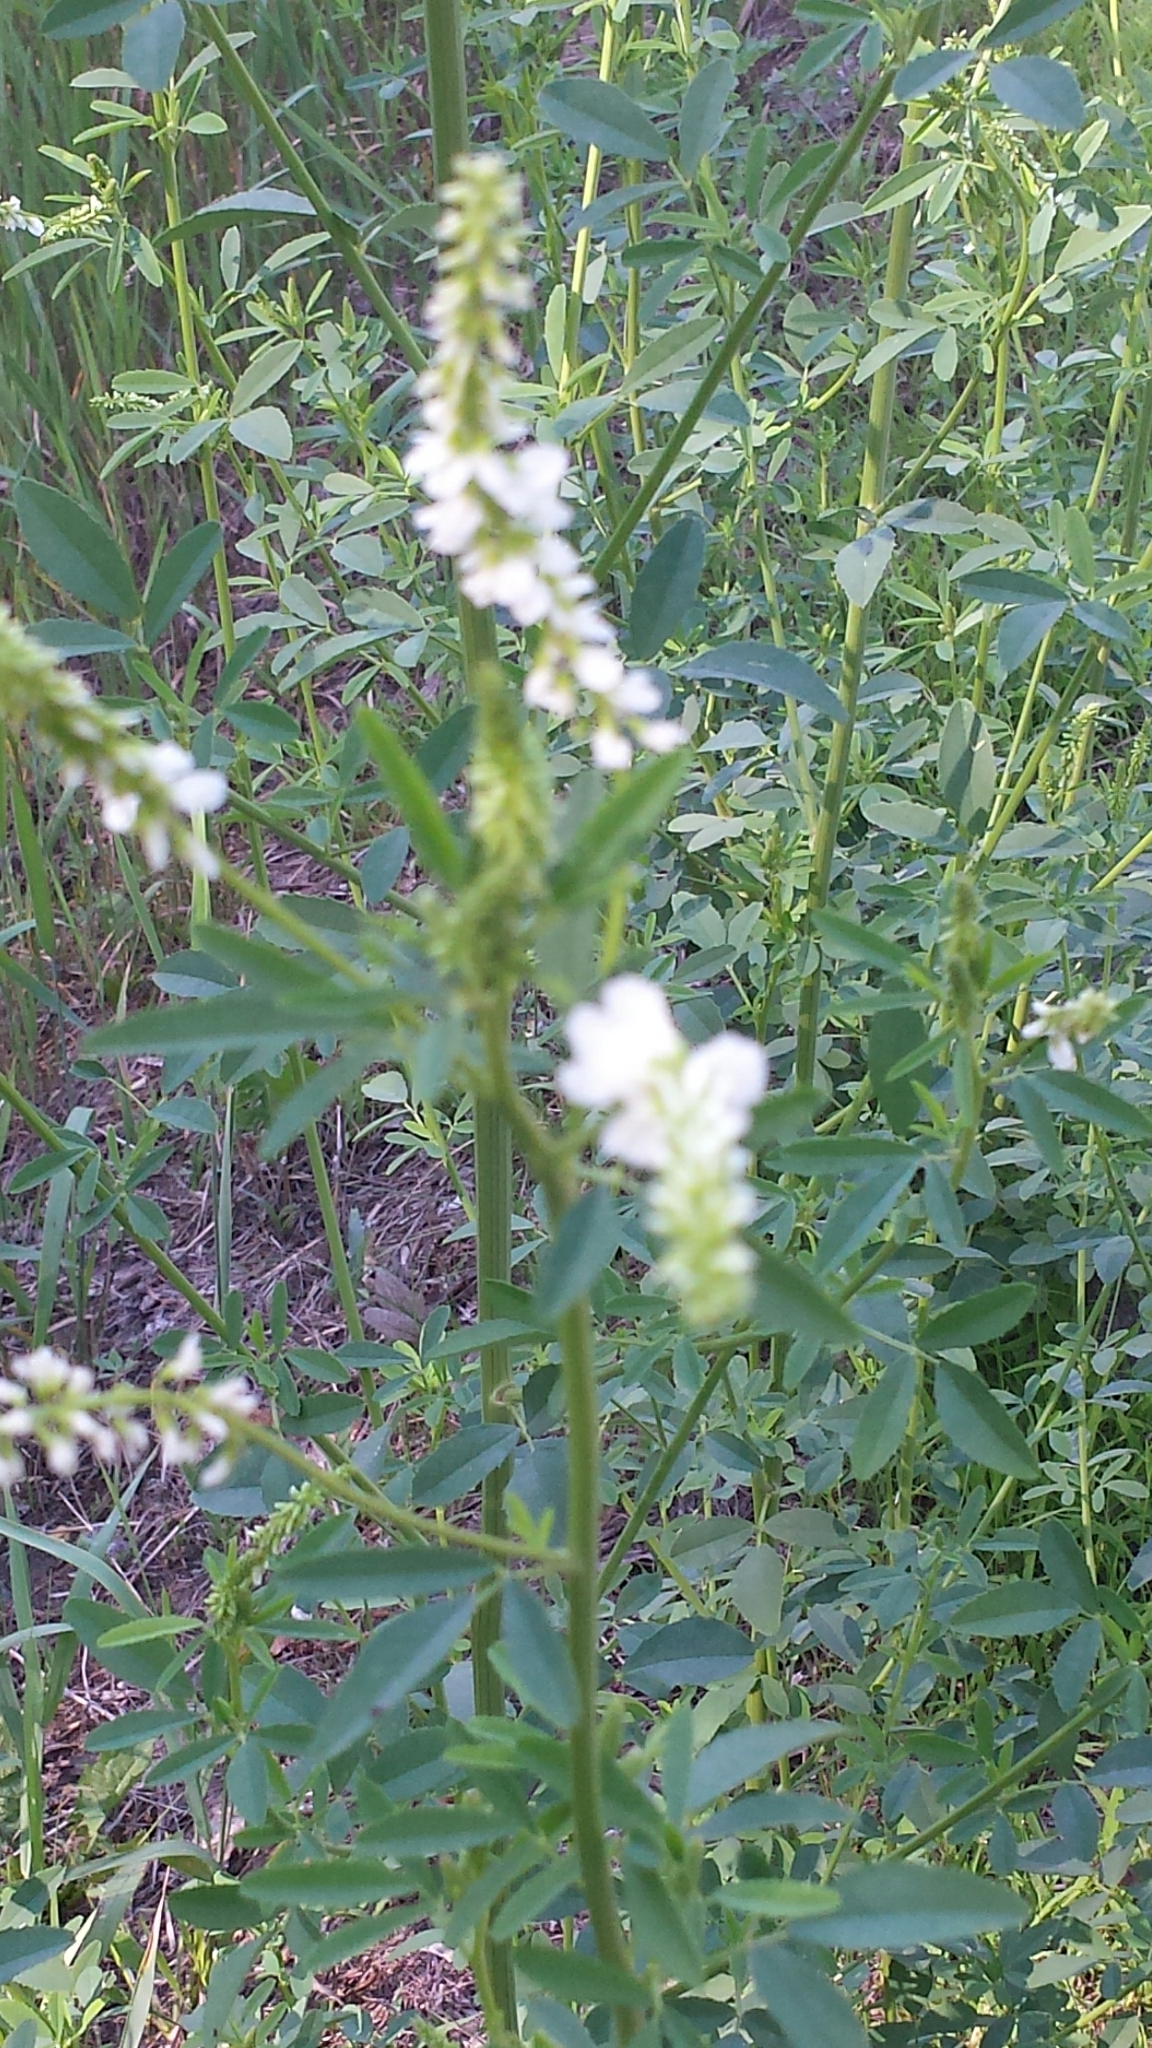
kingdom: Plantae
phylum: Tracheophyta
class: Magnoliopsida
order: Fabales
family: Fabaceae
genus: Melilotus
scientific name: Melilotus albus
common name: White melilot
